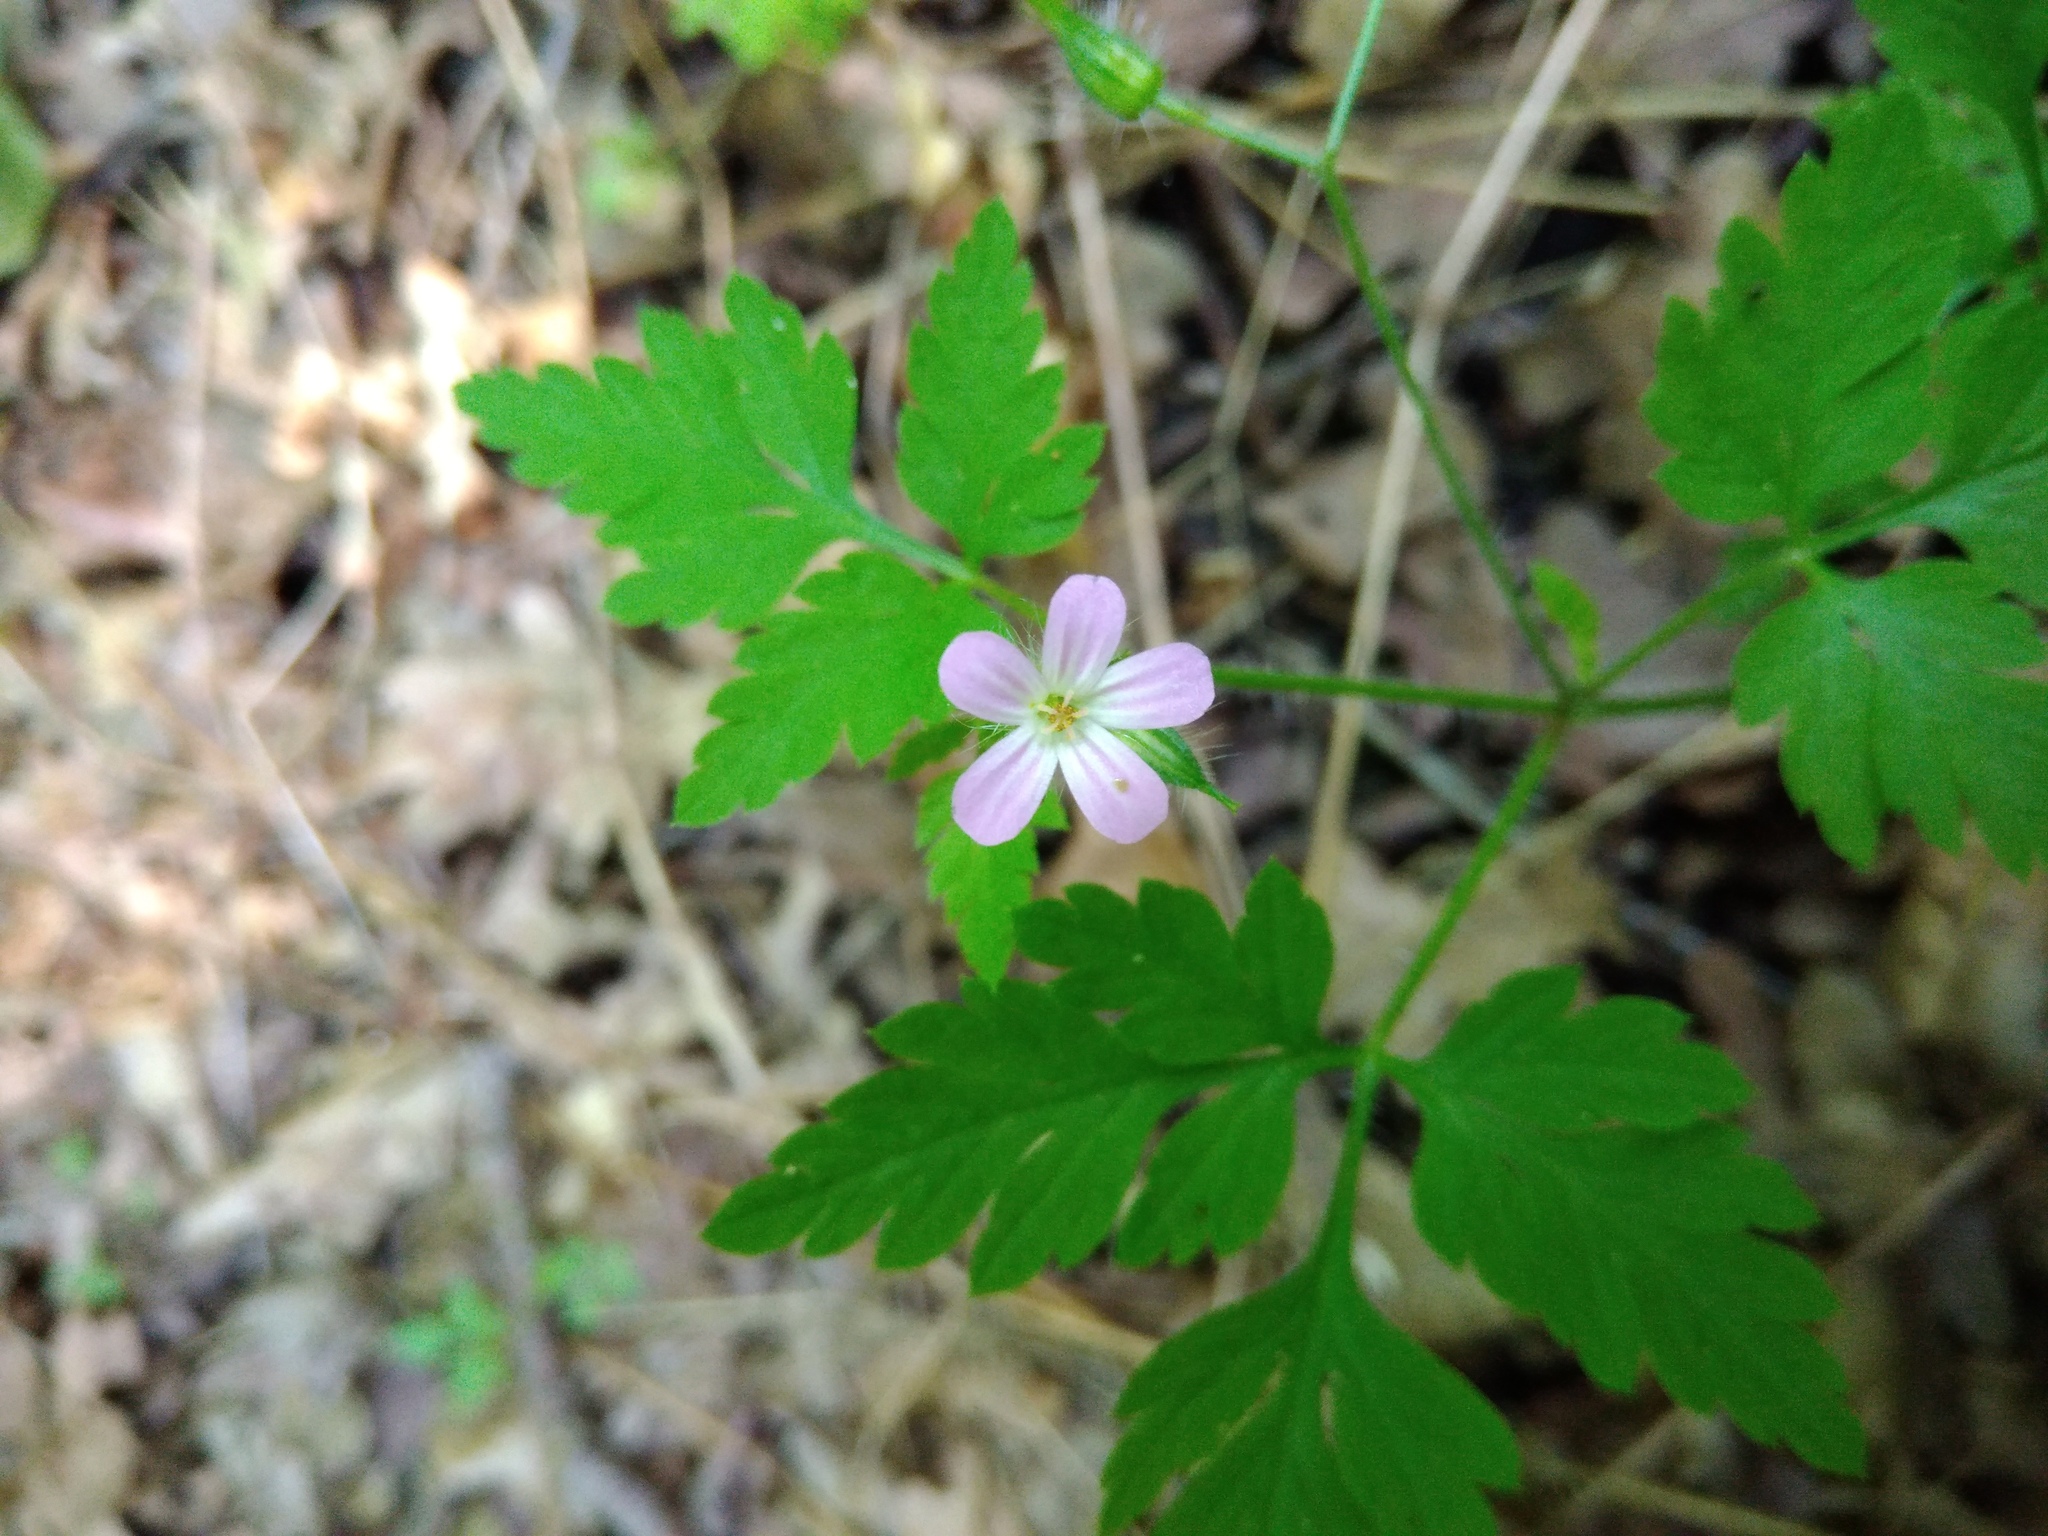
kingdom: Plantae
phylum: Tracheophyta
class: Magnoliopsida
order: Geraniales
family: Geraniaceae
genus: Geranium
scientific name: Geranium robertianum
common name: Herb-robert
